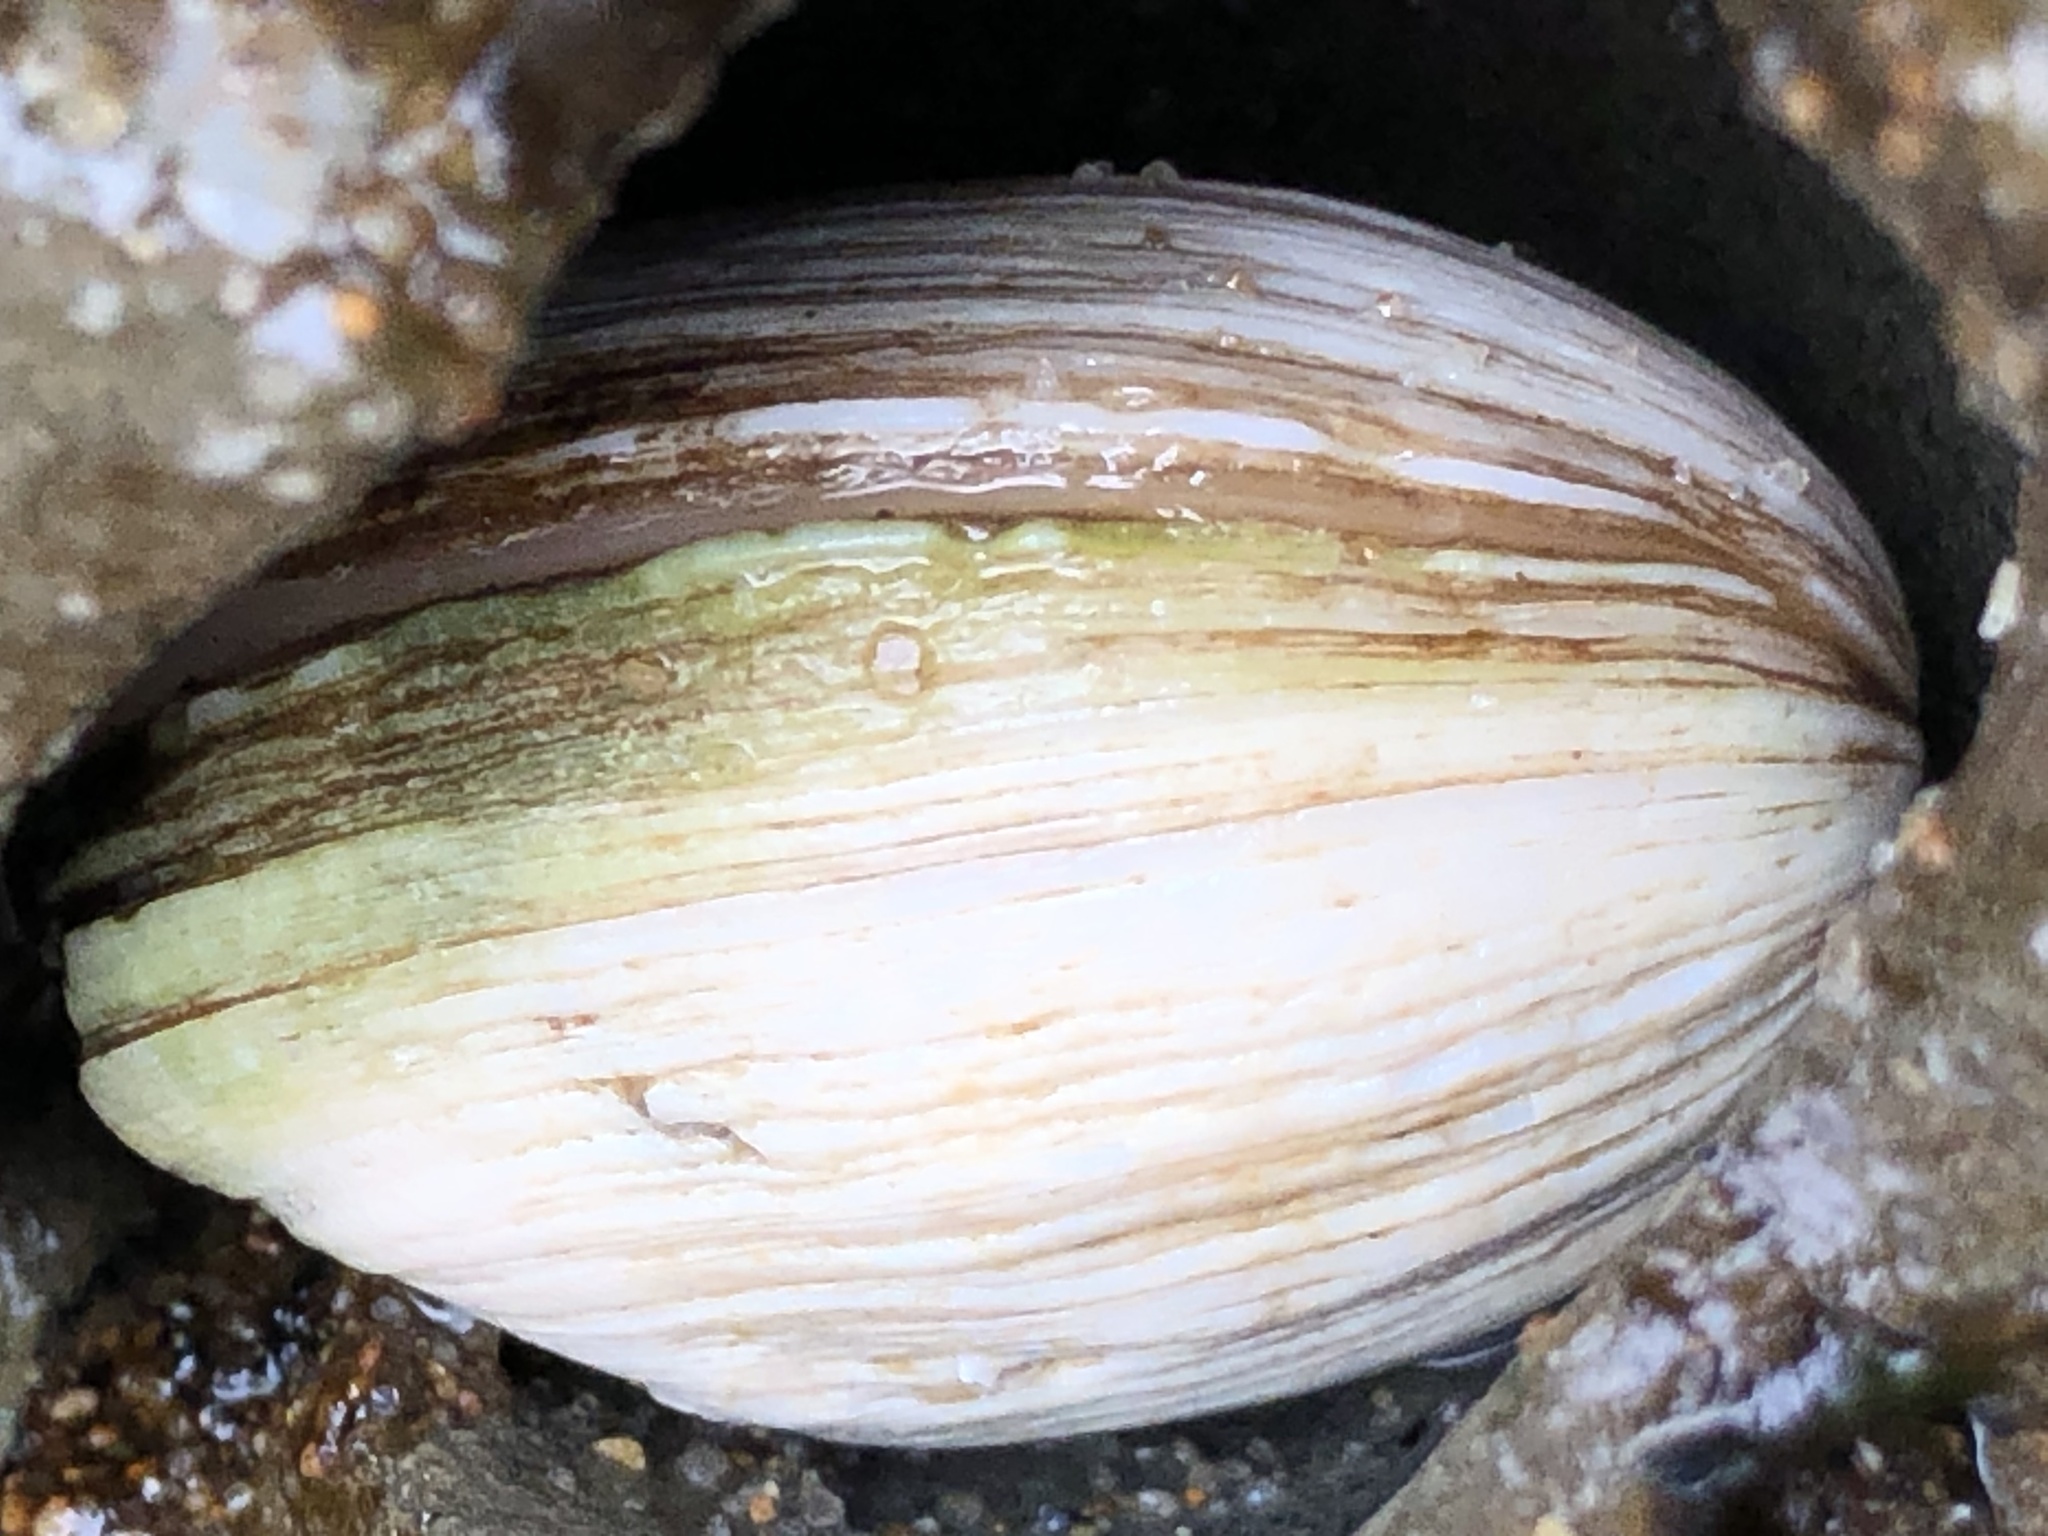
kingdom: Animalia
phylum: Mollusca
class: Bivalvia
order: Venerida
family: Veneridae
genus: Petricola
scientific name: Petricola carditoides
